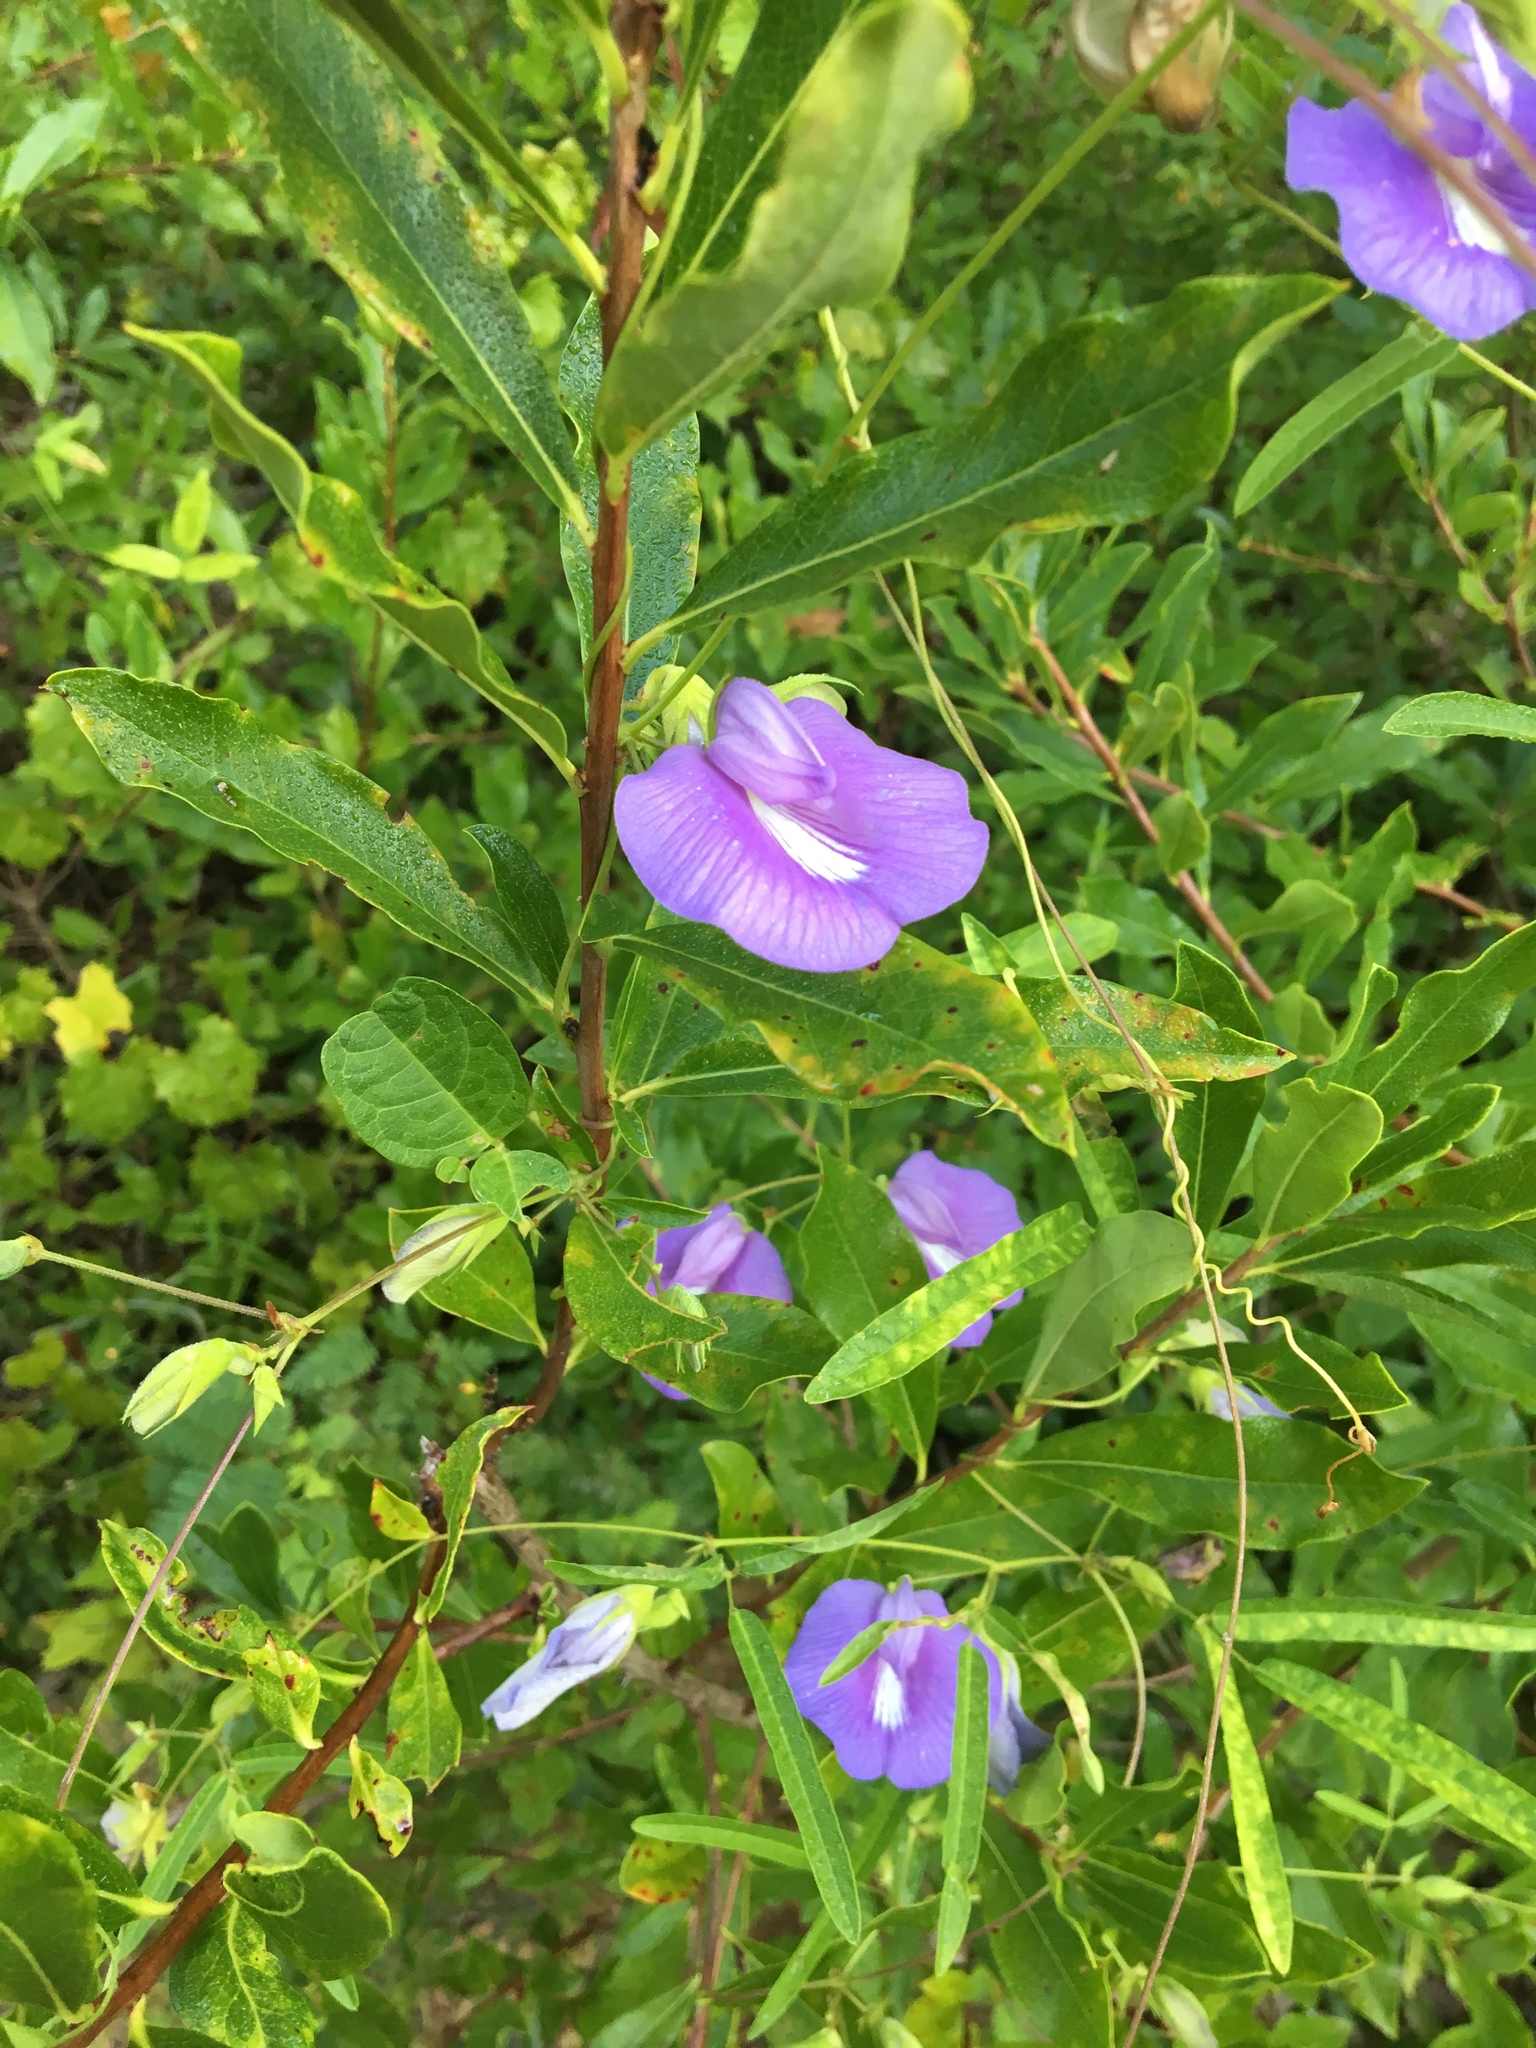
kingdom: Plantae
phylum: Tracheophyta
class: Magnoliopsida
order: Fabales
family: Fabaceae
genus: Centrosema
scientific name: Centrosema virginianum
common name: Butterfly-pea
